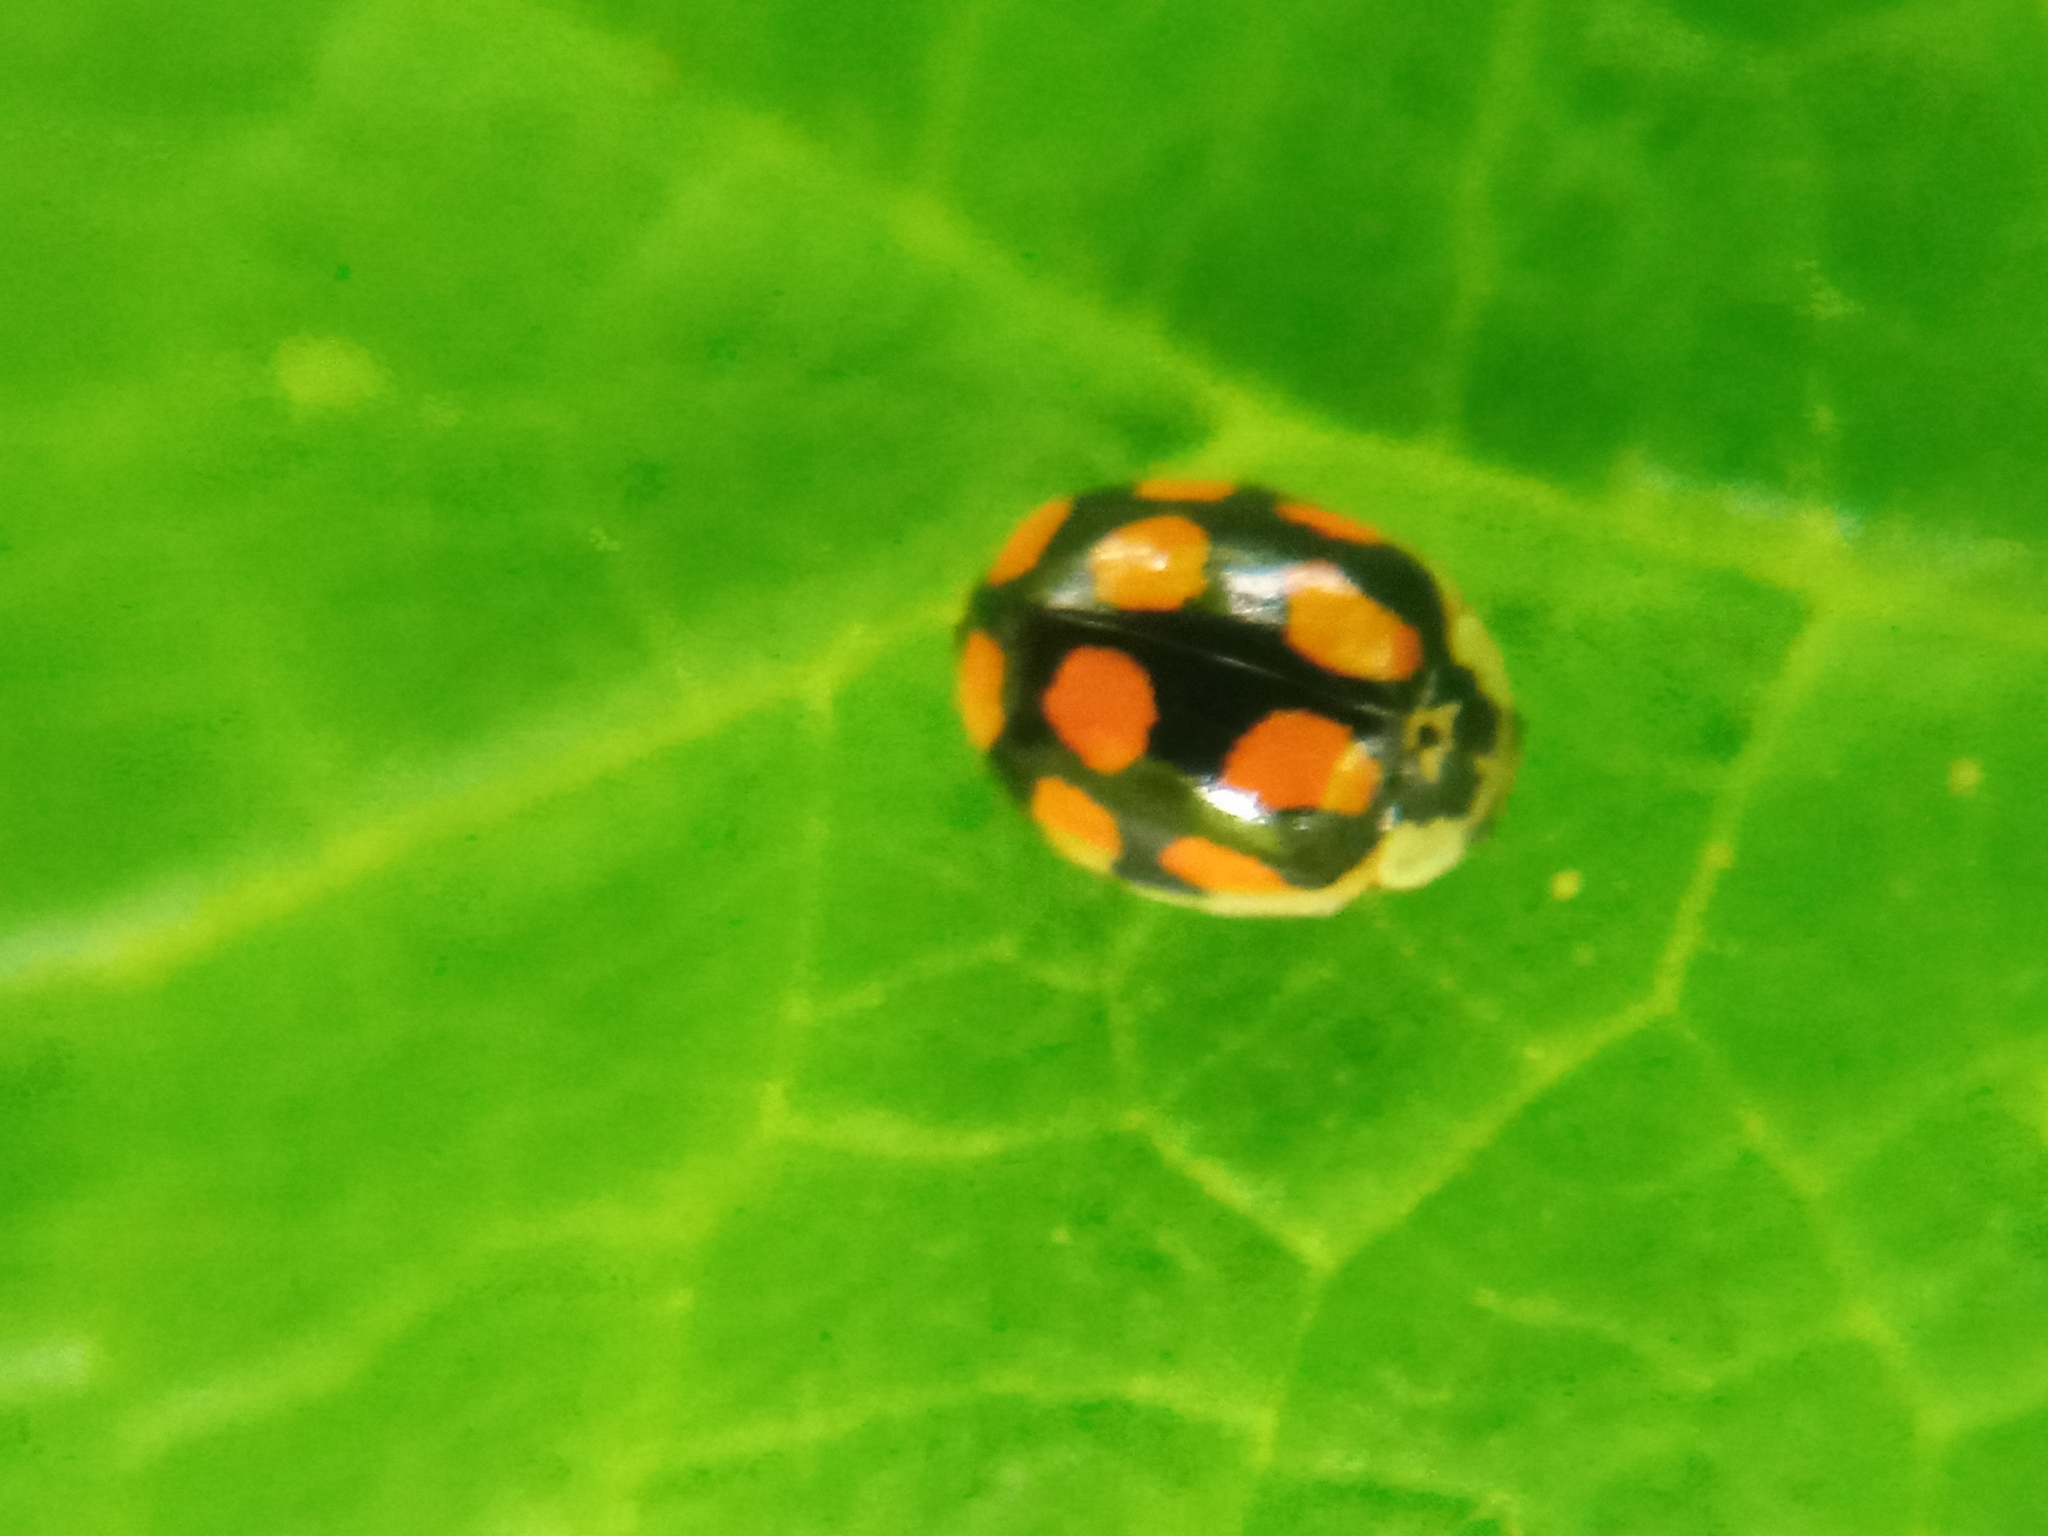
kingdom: Animalia
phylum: Arthropoda
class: Insecta
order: Coleoptera
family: Coccinellidae
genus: Adalia
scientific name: Adalia decempunctata
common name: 10-spot ladybird
